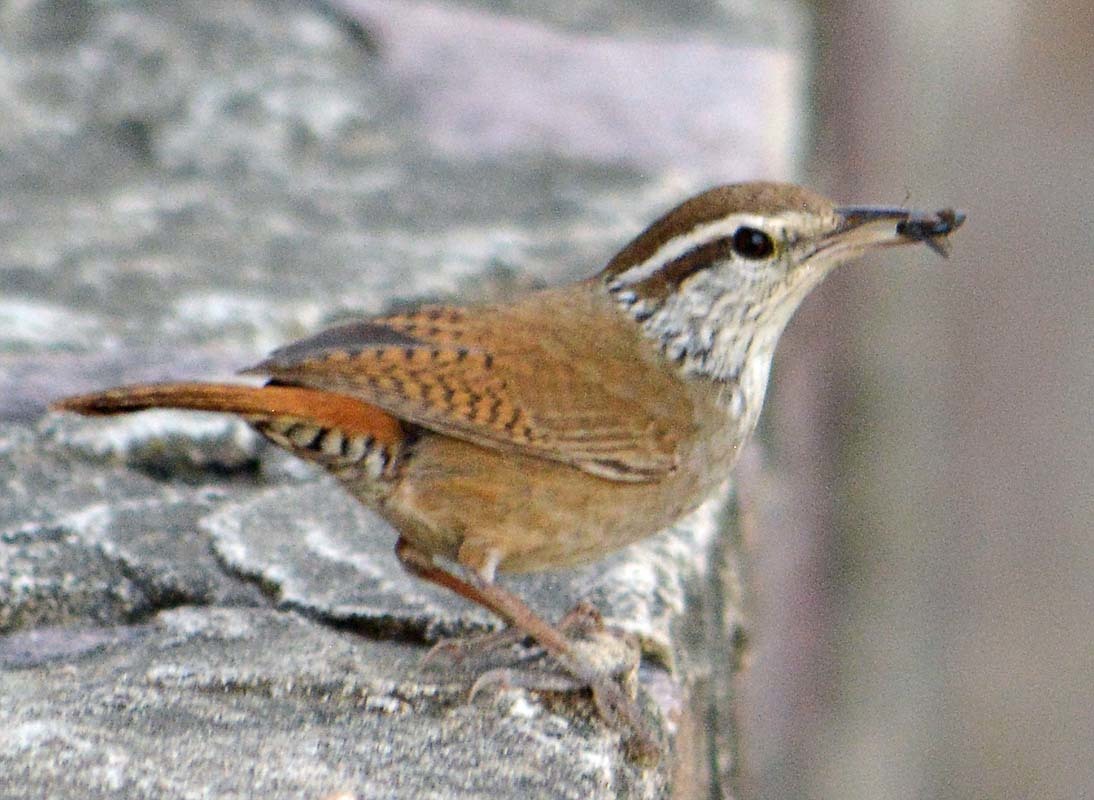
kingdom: Animalia
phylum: Chordata
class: Aves
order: Passeriformes
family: Troglodytidae
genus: Thryophilus
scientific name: Thryophilus sinaloa
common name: Sinaloa wren
